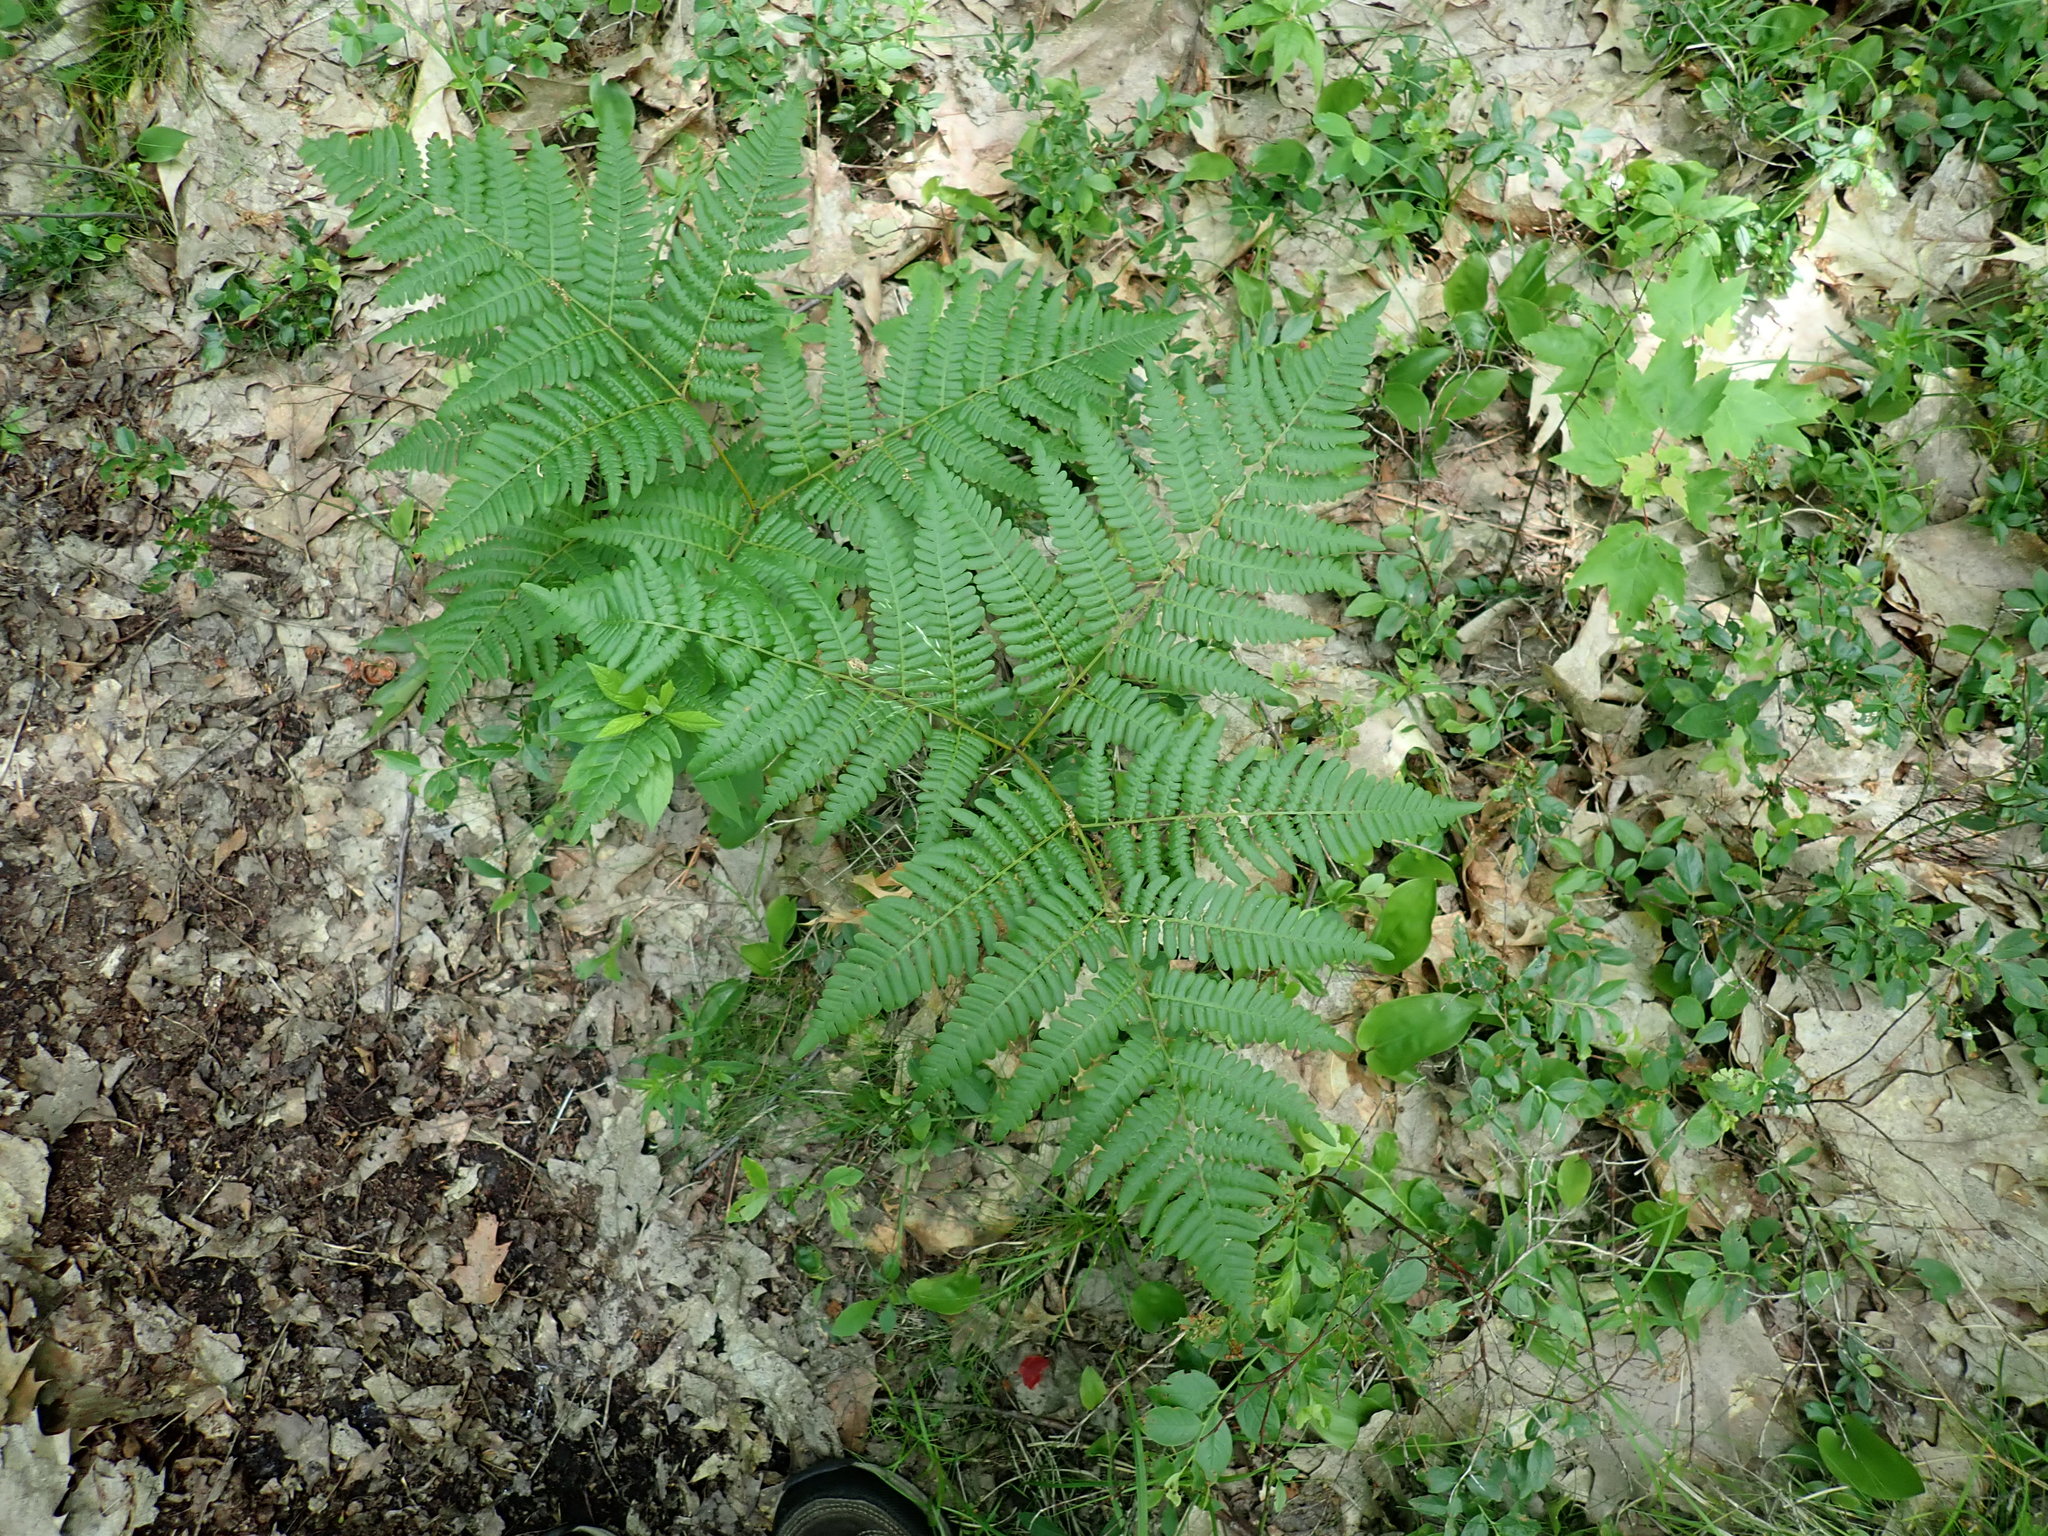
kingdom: Plantae
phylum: Tracheophyta
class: Polypodiopsida
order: Polypodiales
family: Dennstaedtiaceae
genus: Pteridium
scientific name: Pteridium aquilinum
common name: Bracken
